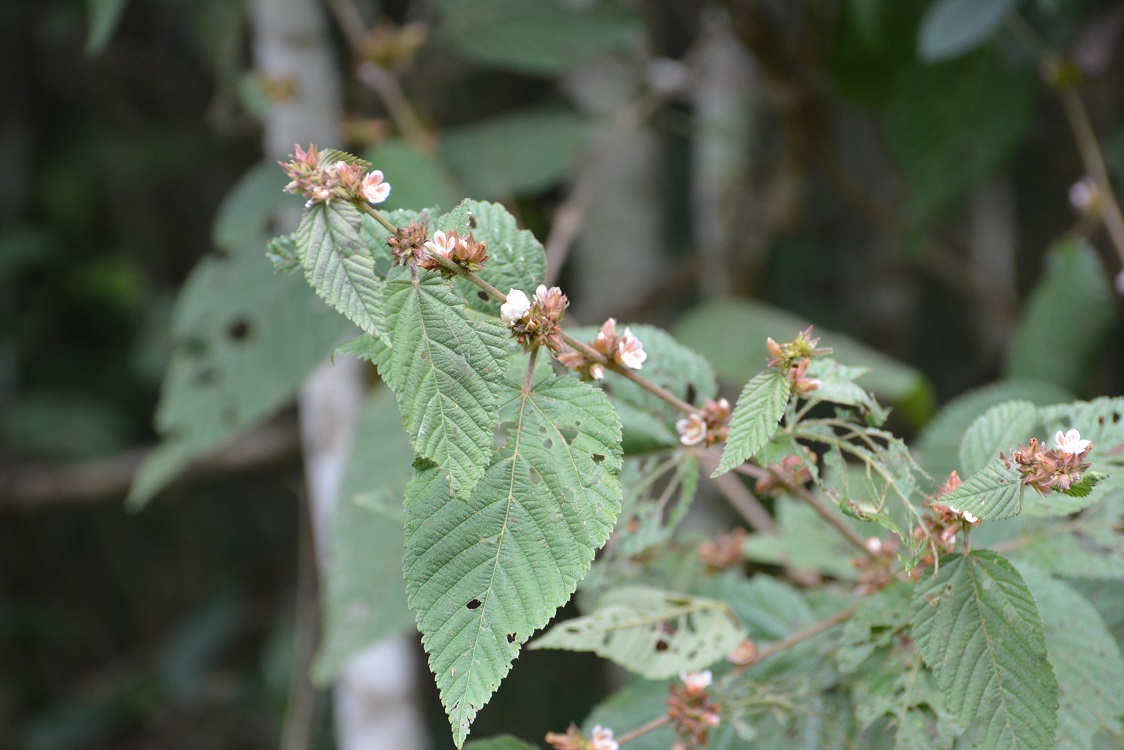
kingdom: Plantae
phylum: Tracheophyta
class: Magnoliopsida
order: Malvales
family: Malvaceae
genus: Melochia
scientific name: Melochia nodiflora
